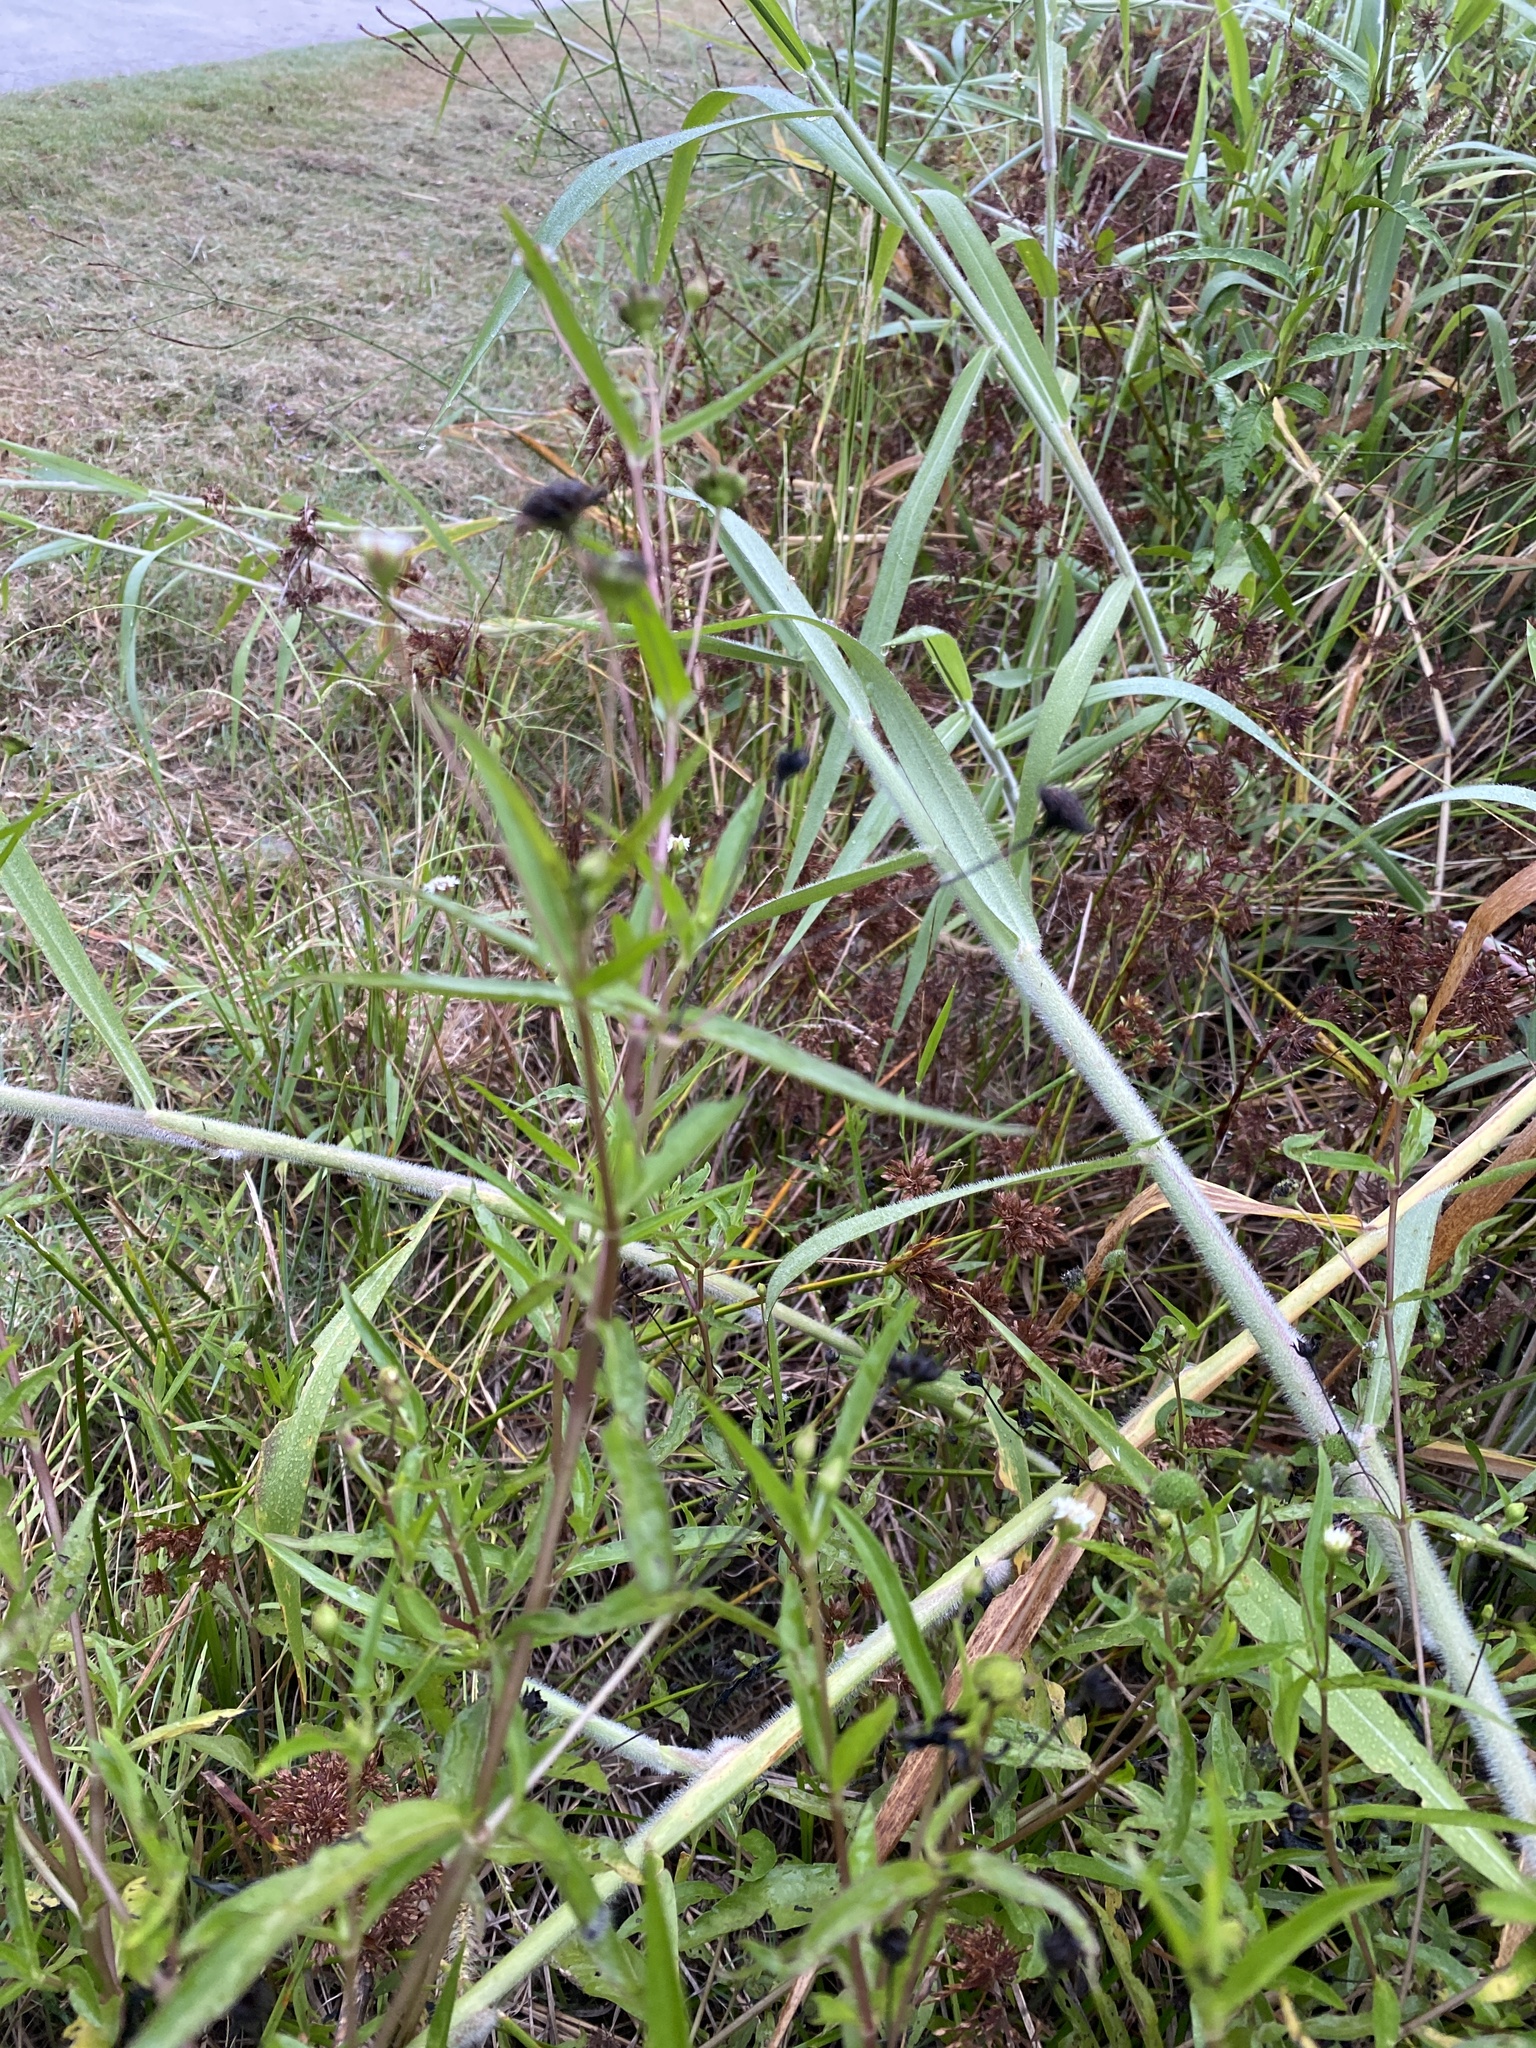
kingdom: Plantae
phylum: Tracheophyta
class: Magnoliopsida
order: Asterales
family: Asteraceae
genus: Eclipta
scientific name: Eclipta prostrata
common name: False daisy
